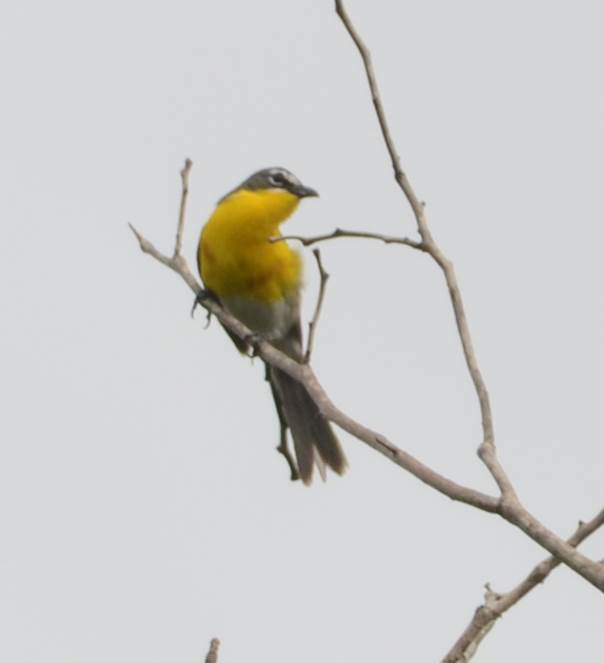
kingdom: Animalia
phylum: Chordata
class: Aves
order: Passeriformes
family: Parulidae
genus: Icteria
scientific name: Icteria virens
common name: Yellow-breasted chat
